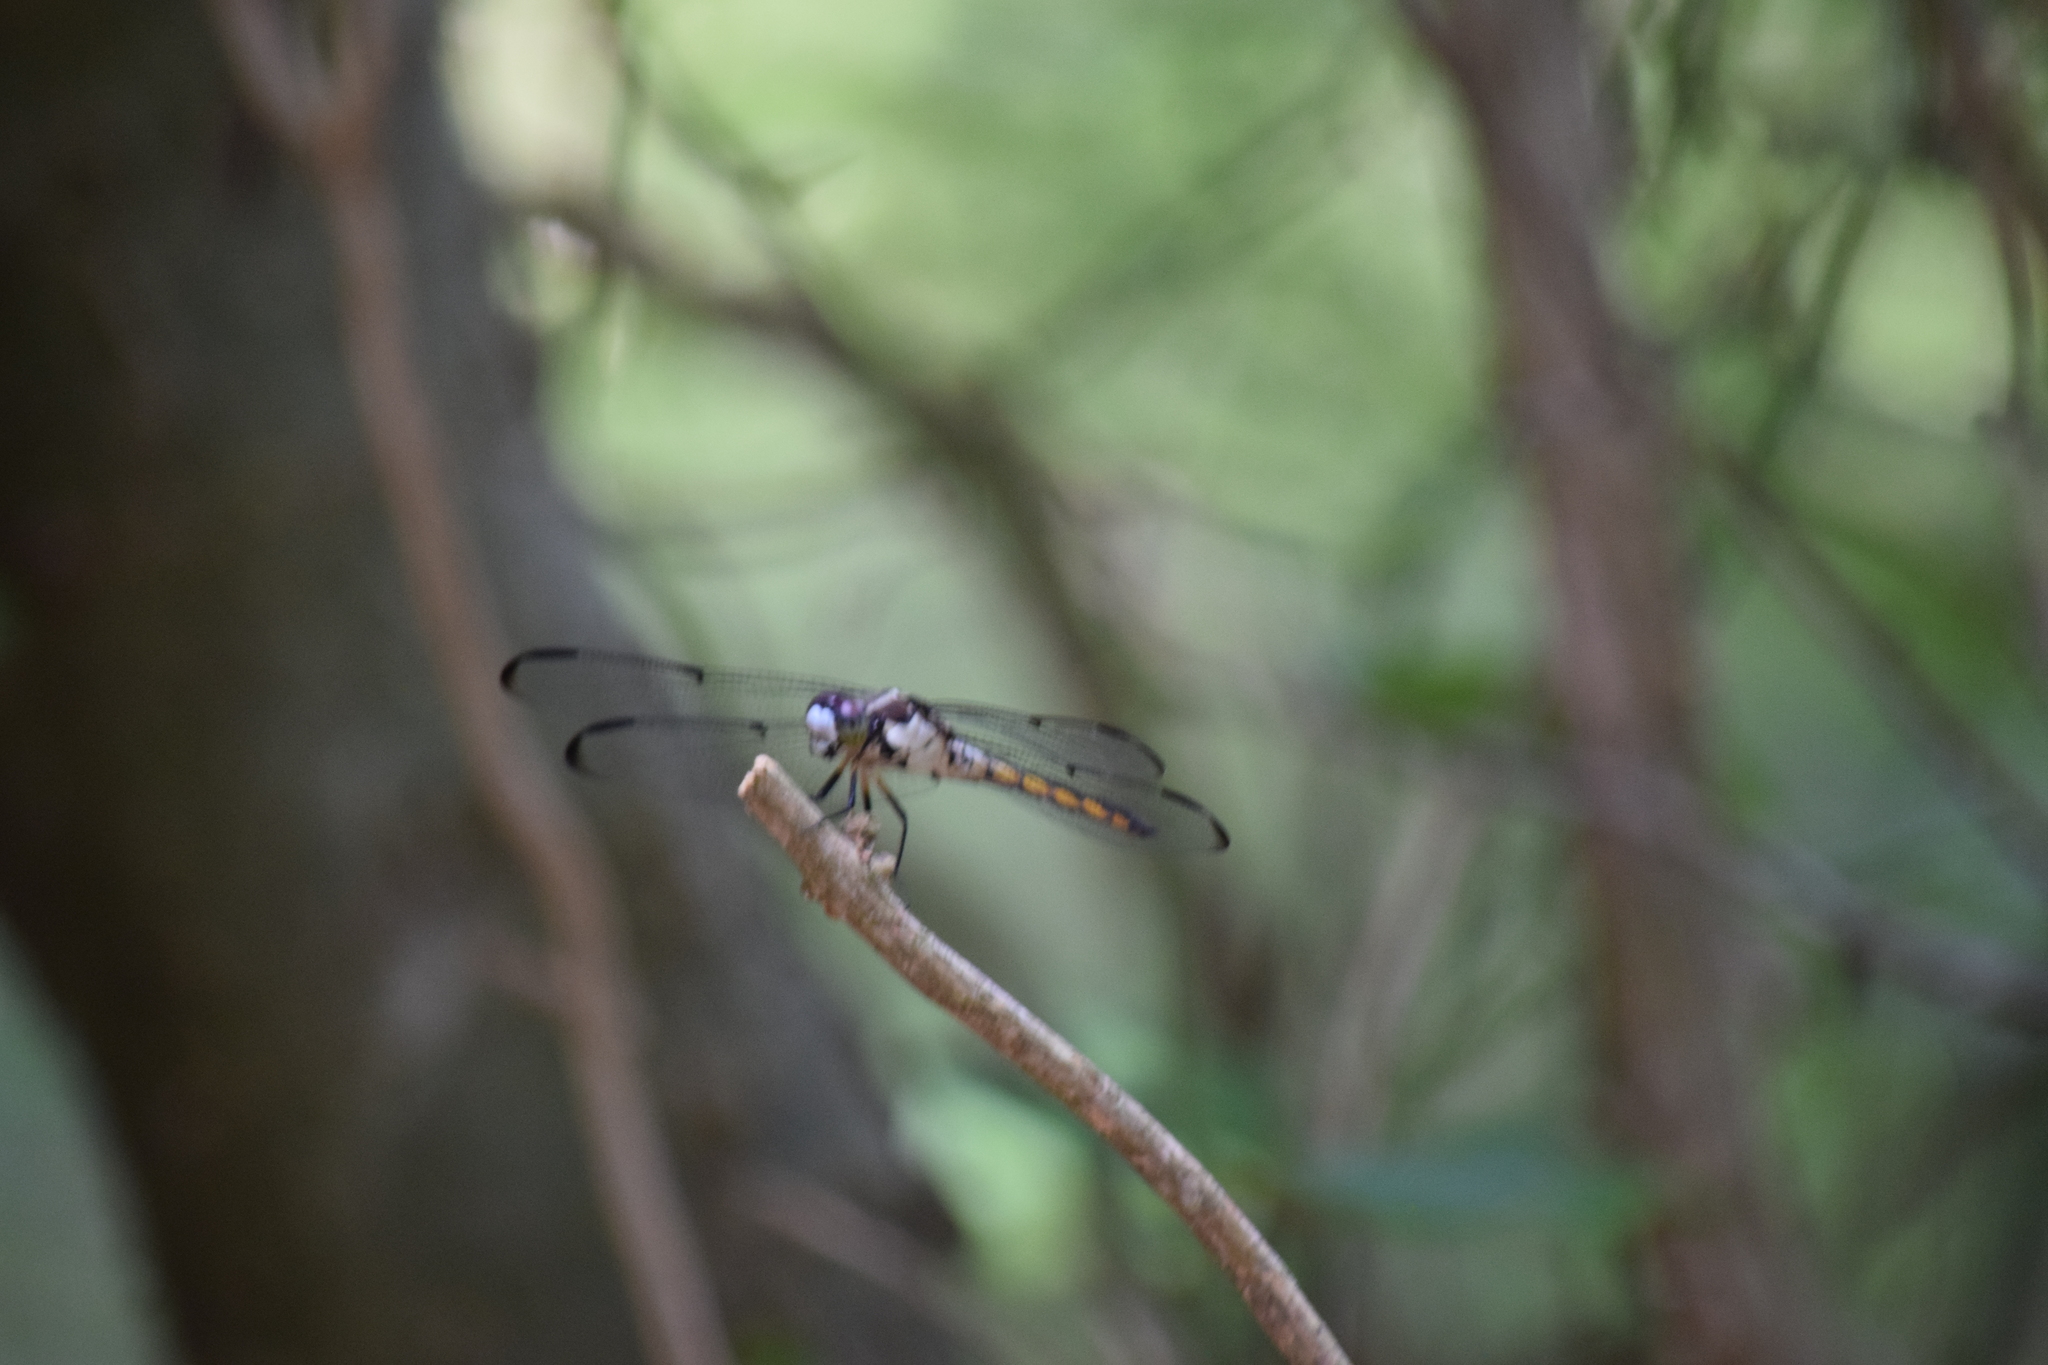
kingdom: Animalia
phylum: Arthropoda
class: Insecta
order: Odonata
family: Libellulidae
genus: Libellula
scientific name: Libellula vibrans
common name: Great blue skimmer
